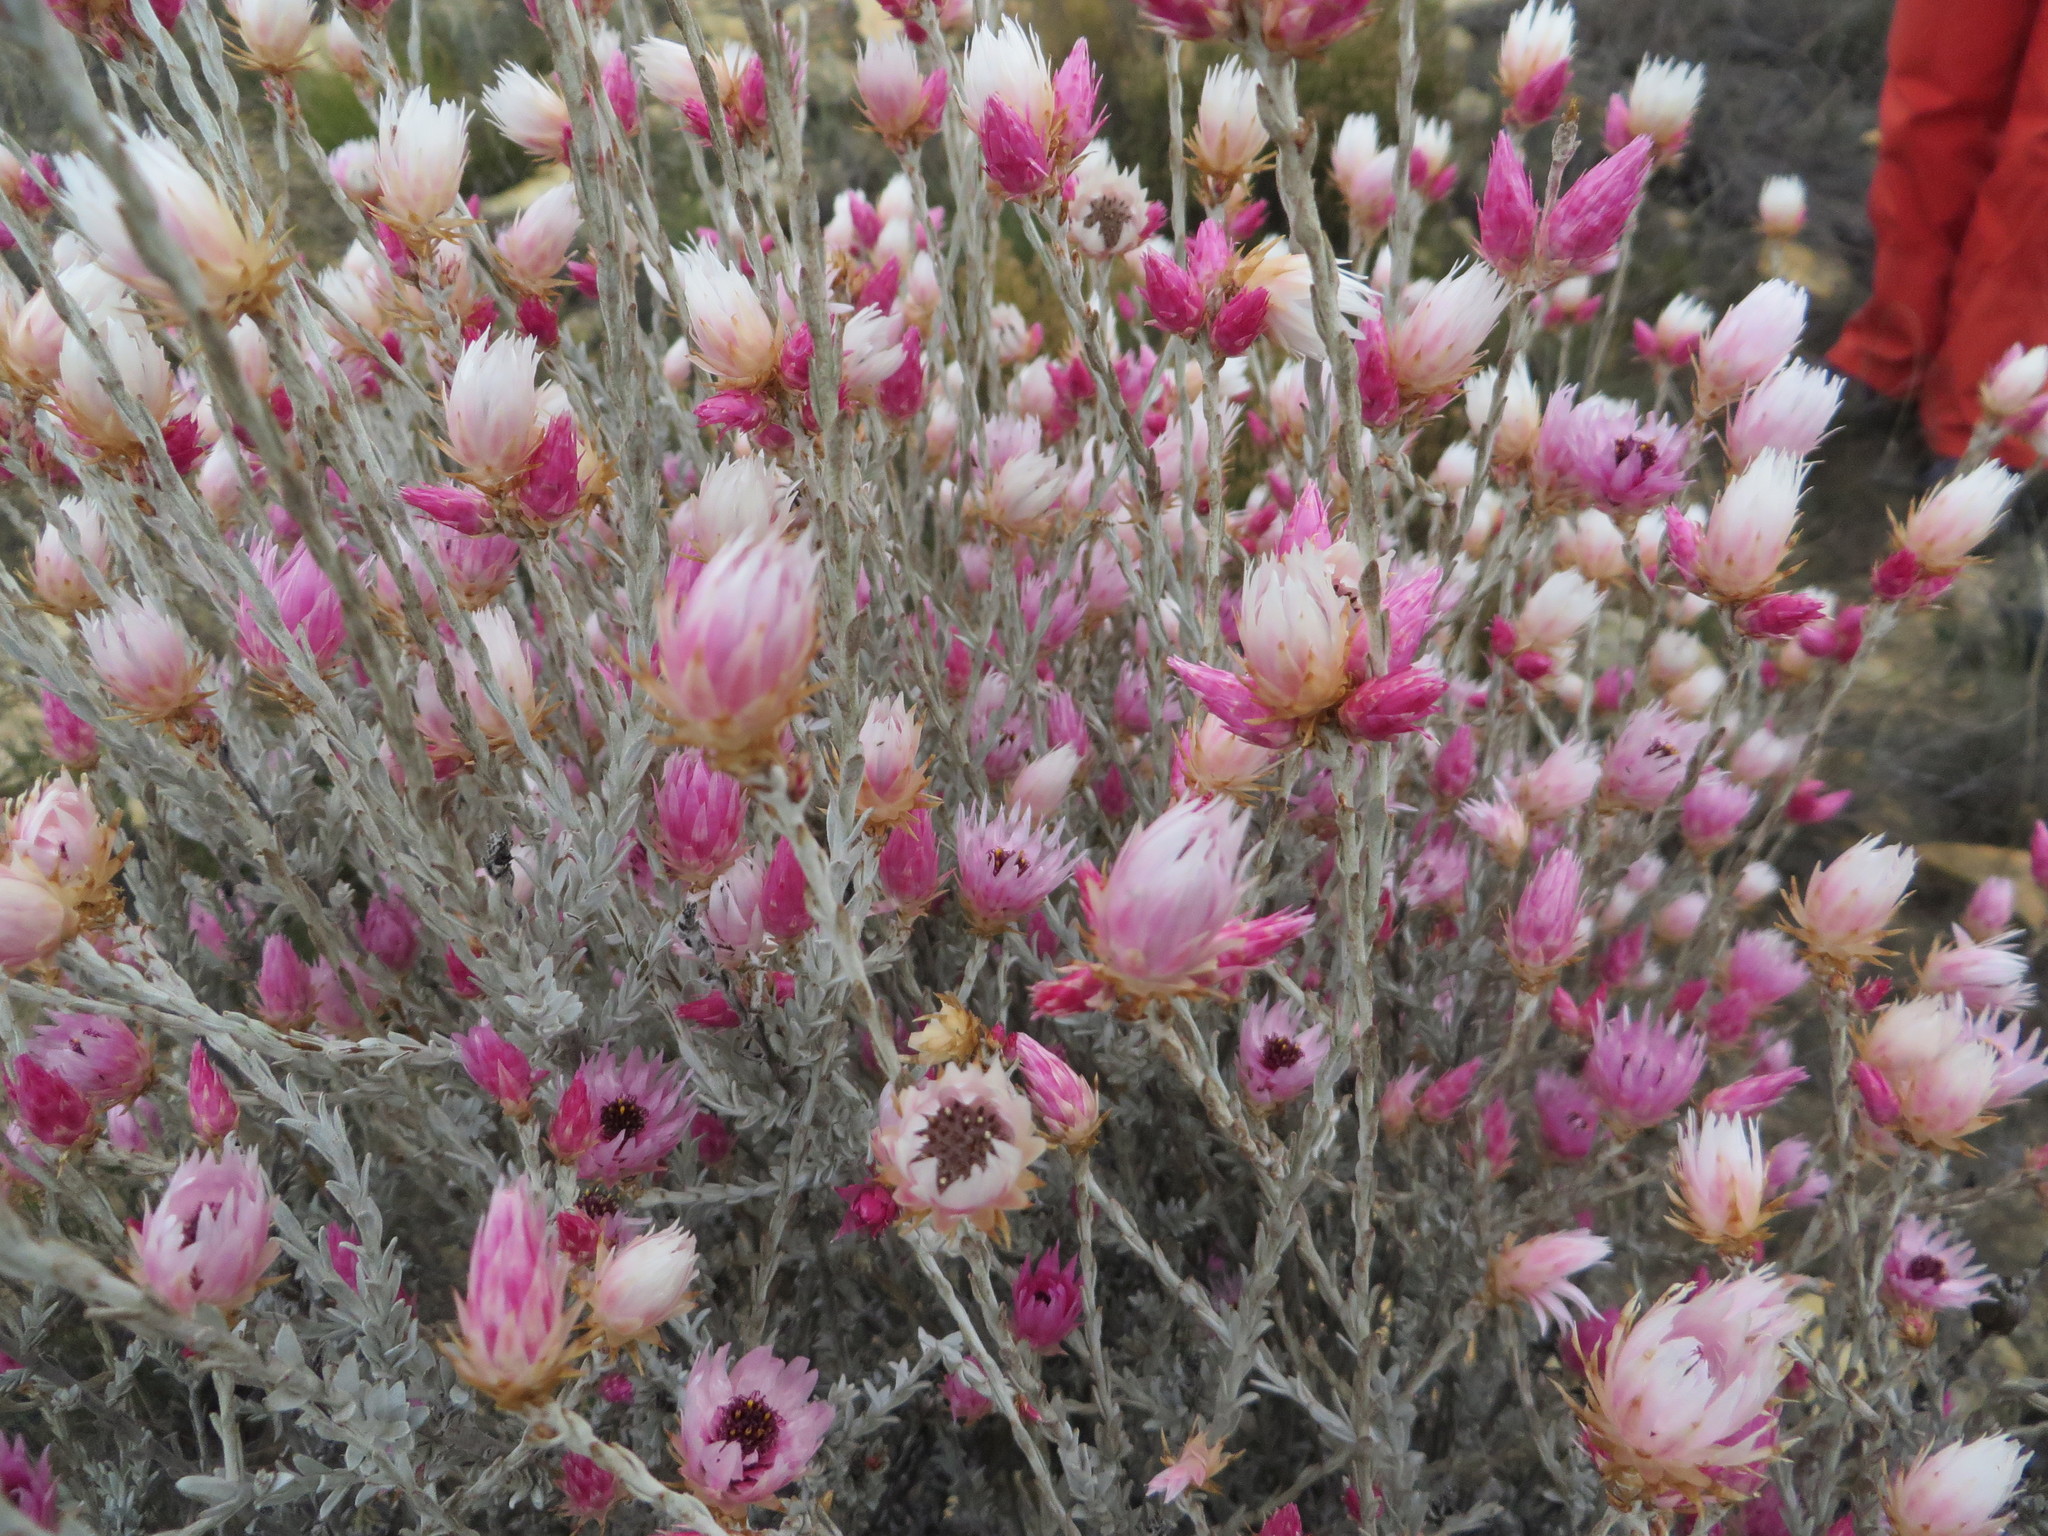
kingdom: Plantae
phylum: Tracheophyta
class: Magnoliopsida
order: Asterales
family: Asteraceae
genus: Syncarpha
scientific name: Syncarpha canescens
